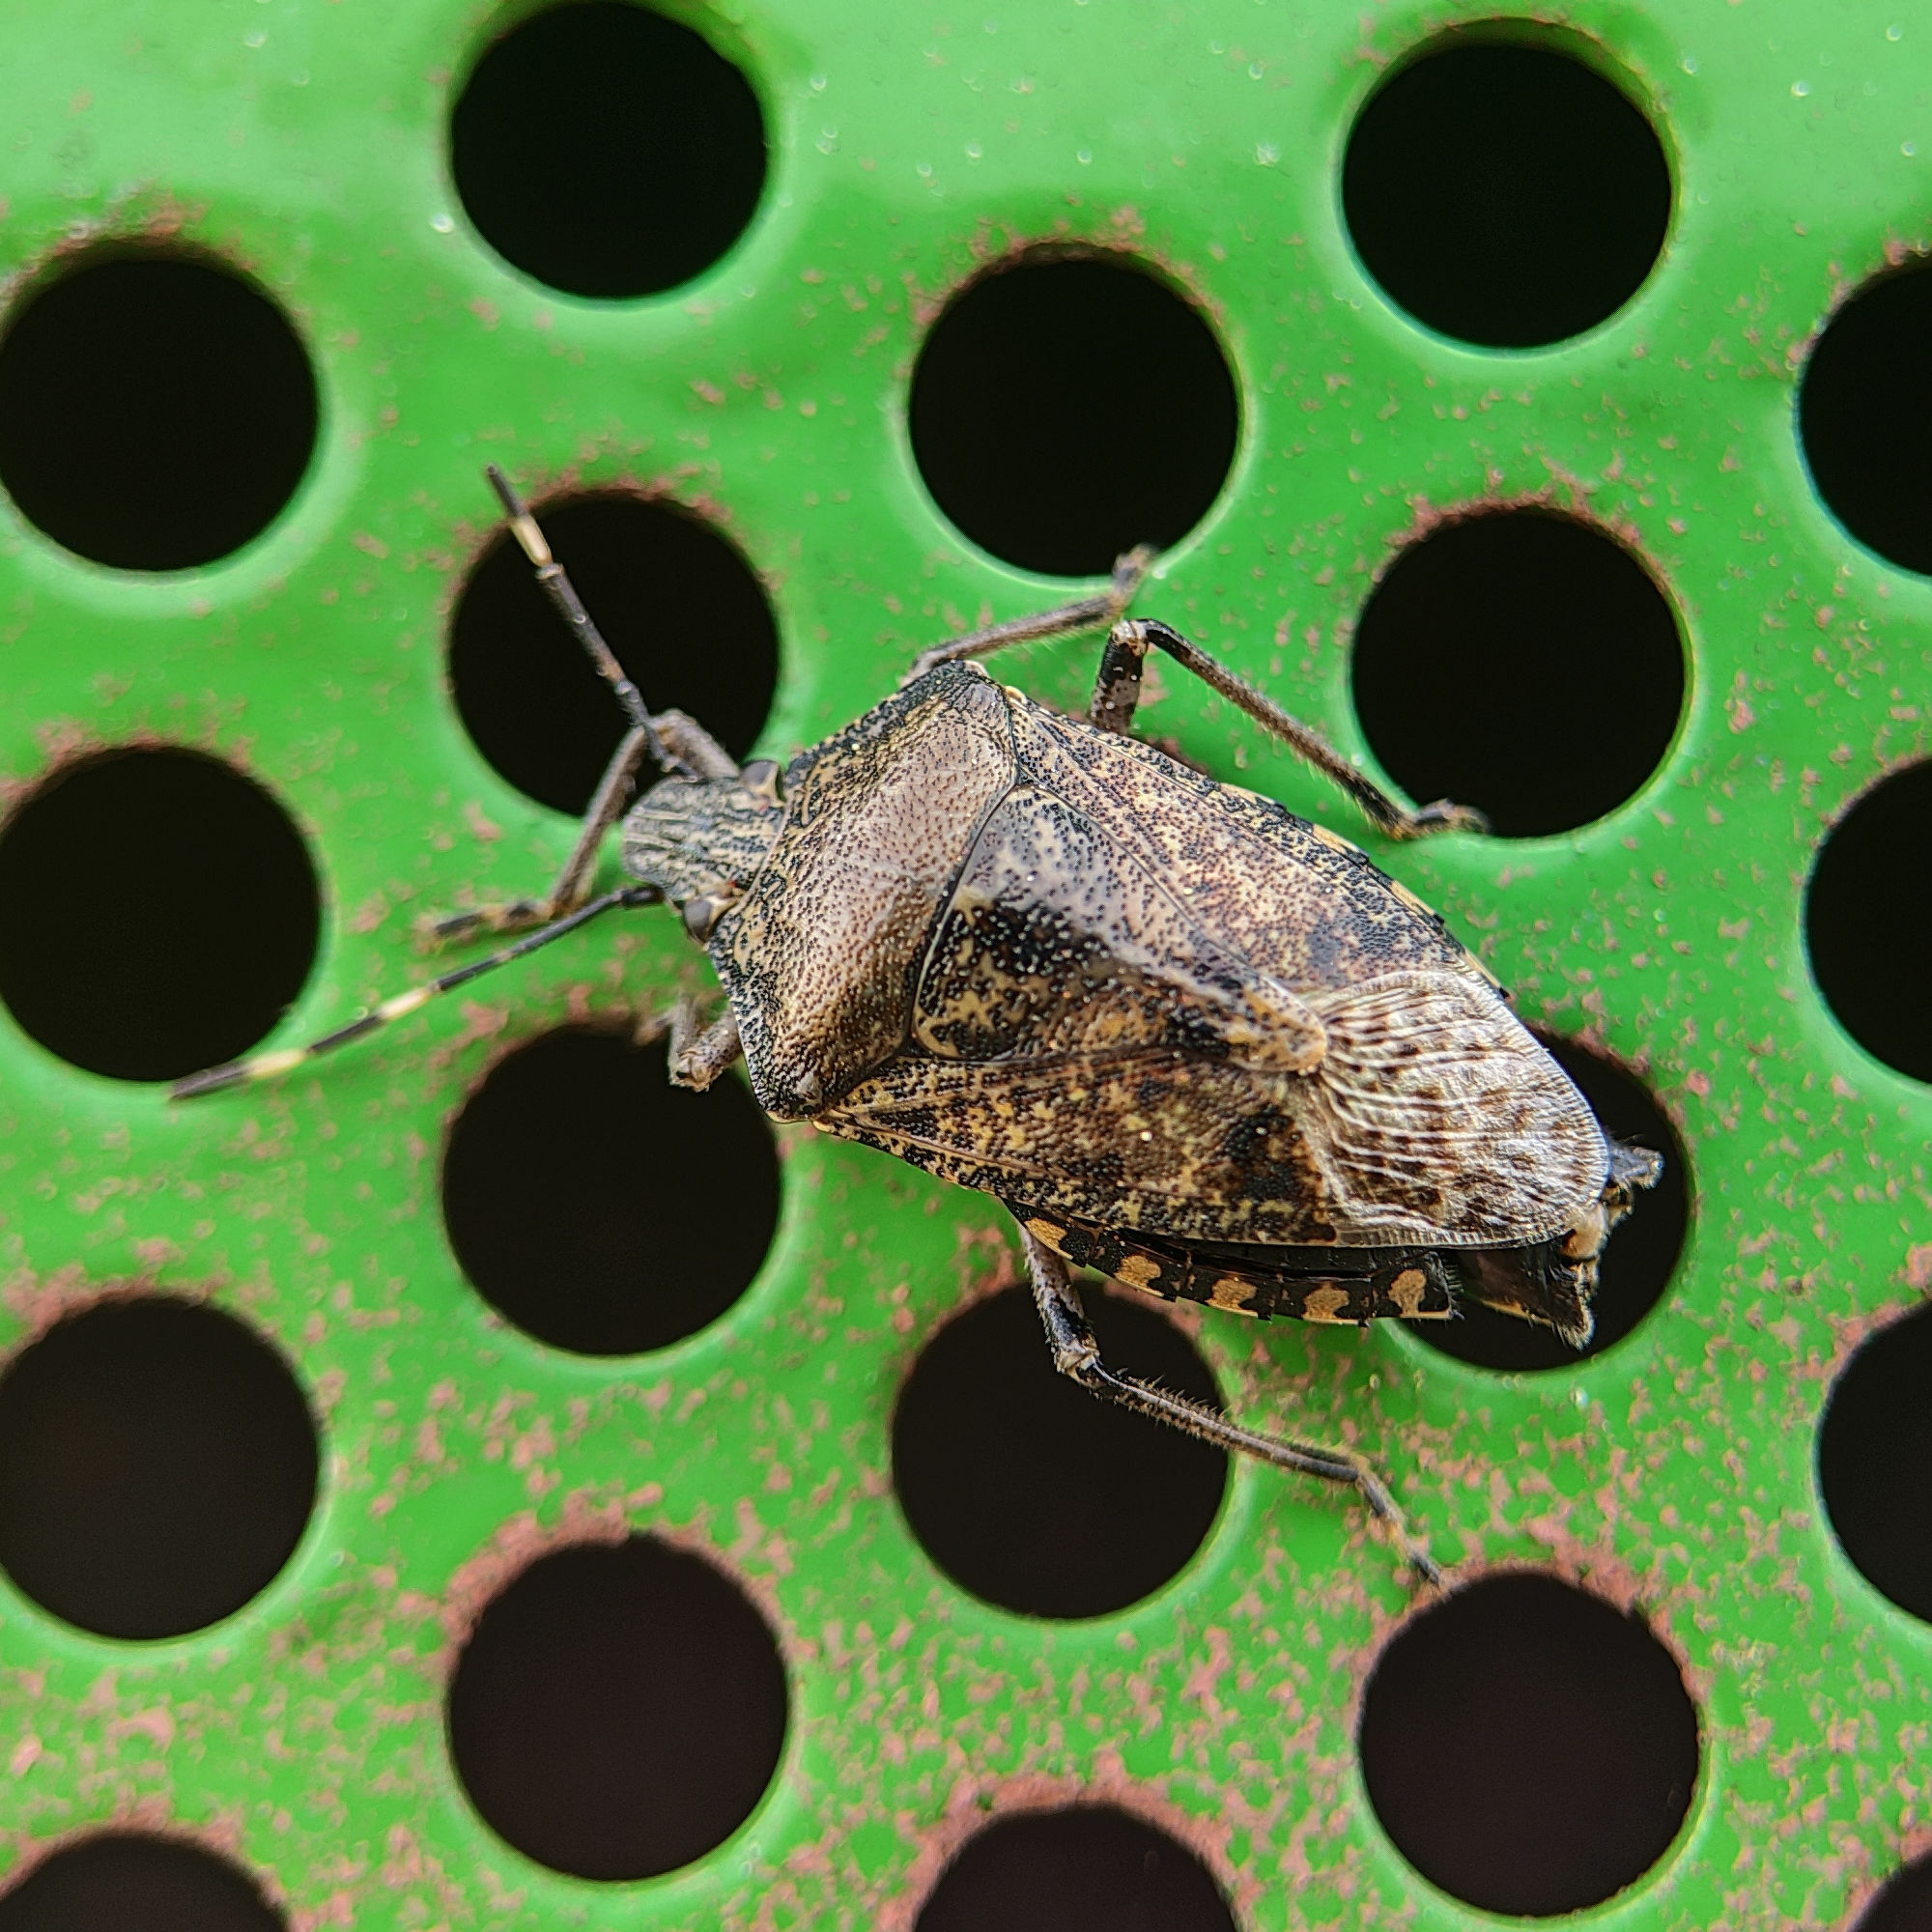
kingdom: Animalia
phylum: Arthropoda
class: Insecta
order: Hemiptera
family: Pentatomidae
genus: Rhaphigaster
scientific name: Rhaphigaster nebulosa
